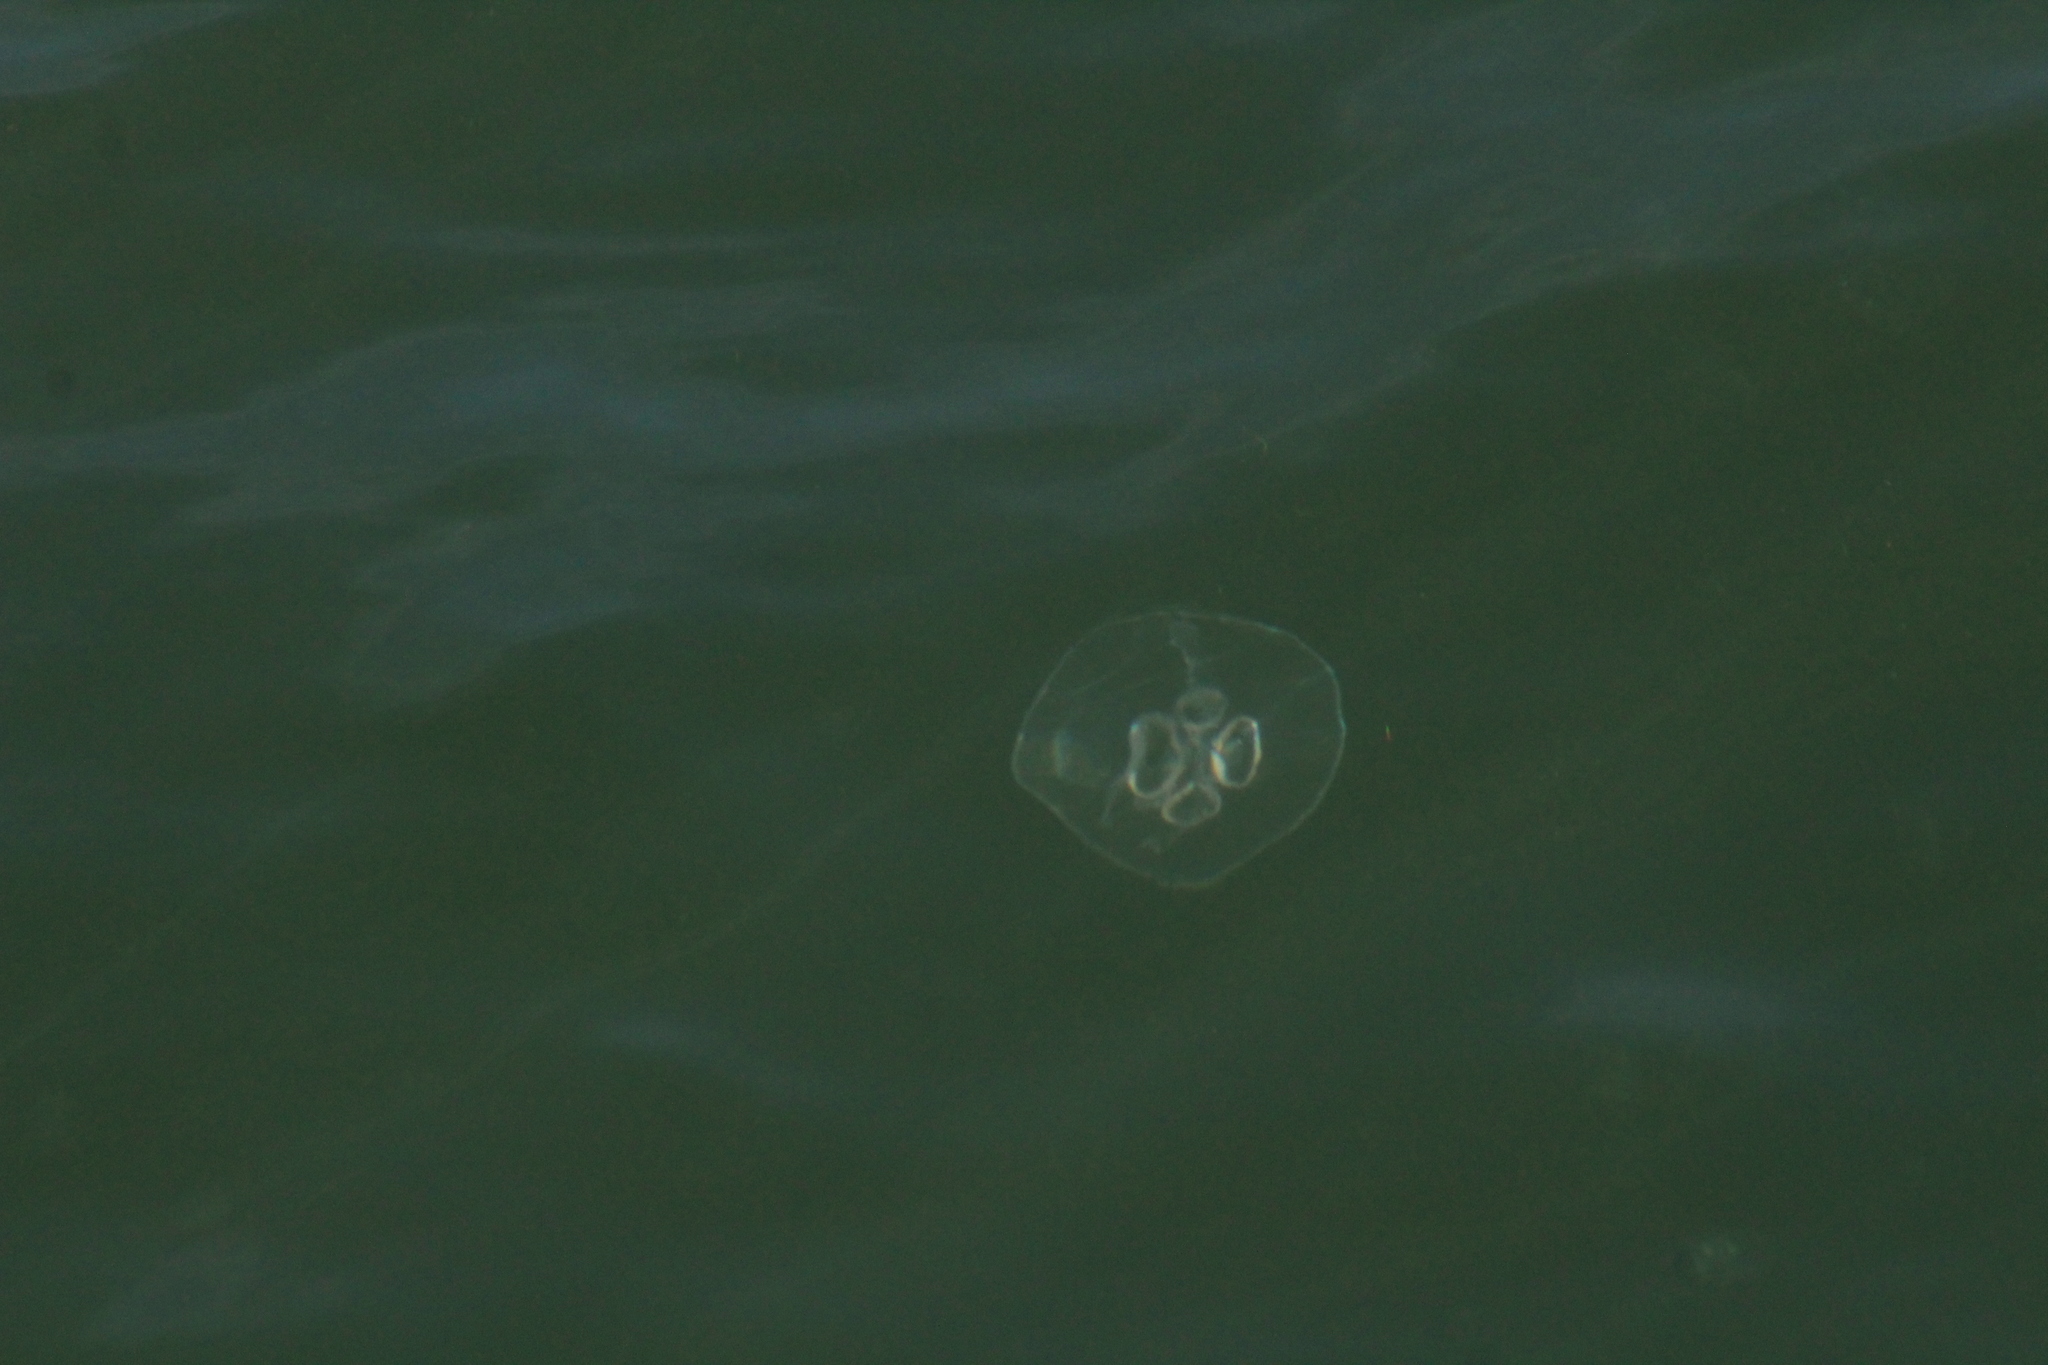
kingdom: Animalia
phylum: Cnidaria
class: Scyphozoa
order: Semaeostomeae
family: Ulmaridae
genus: Aurelia
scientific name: Aurelia aurita
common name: Moon jellyfish
